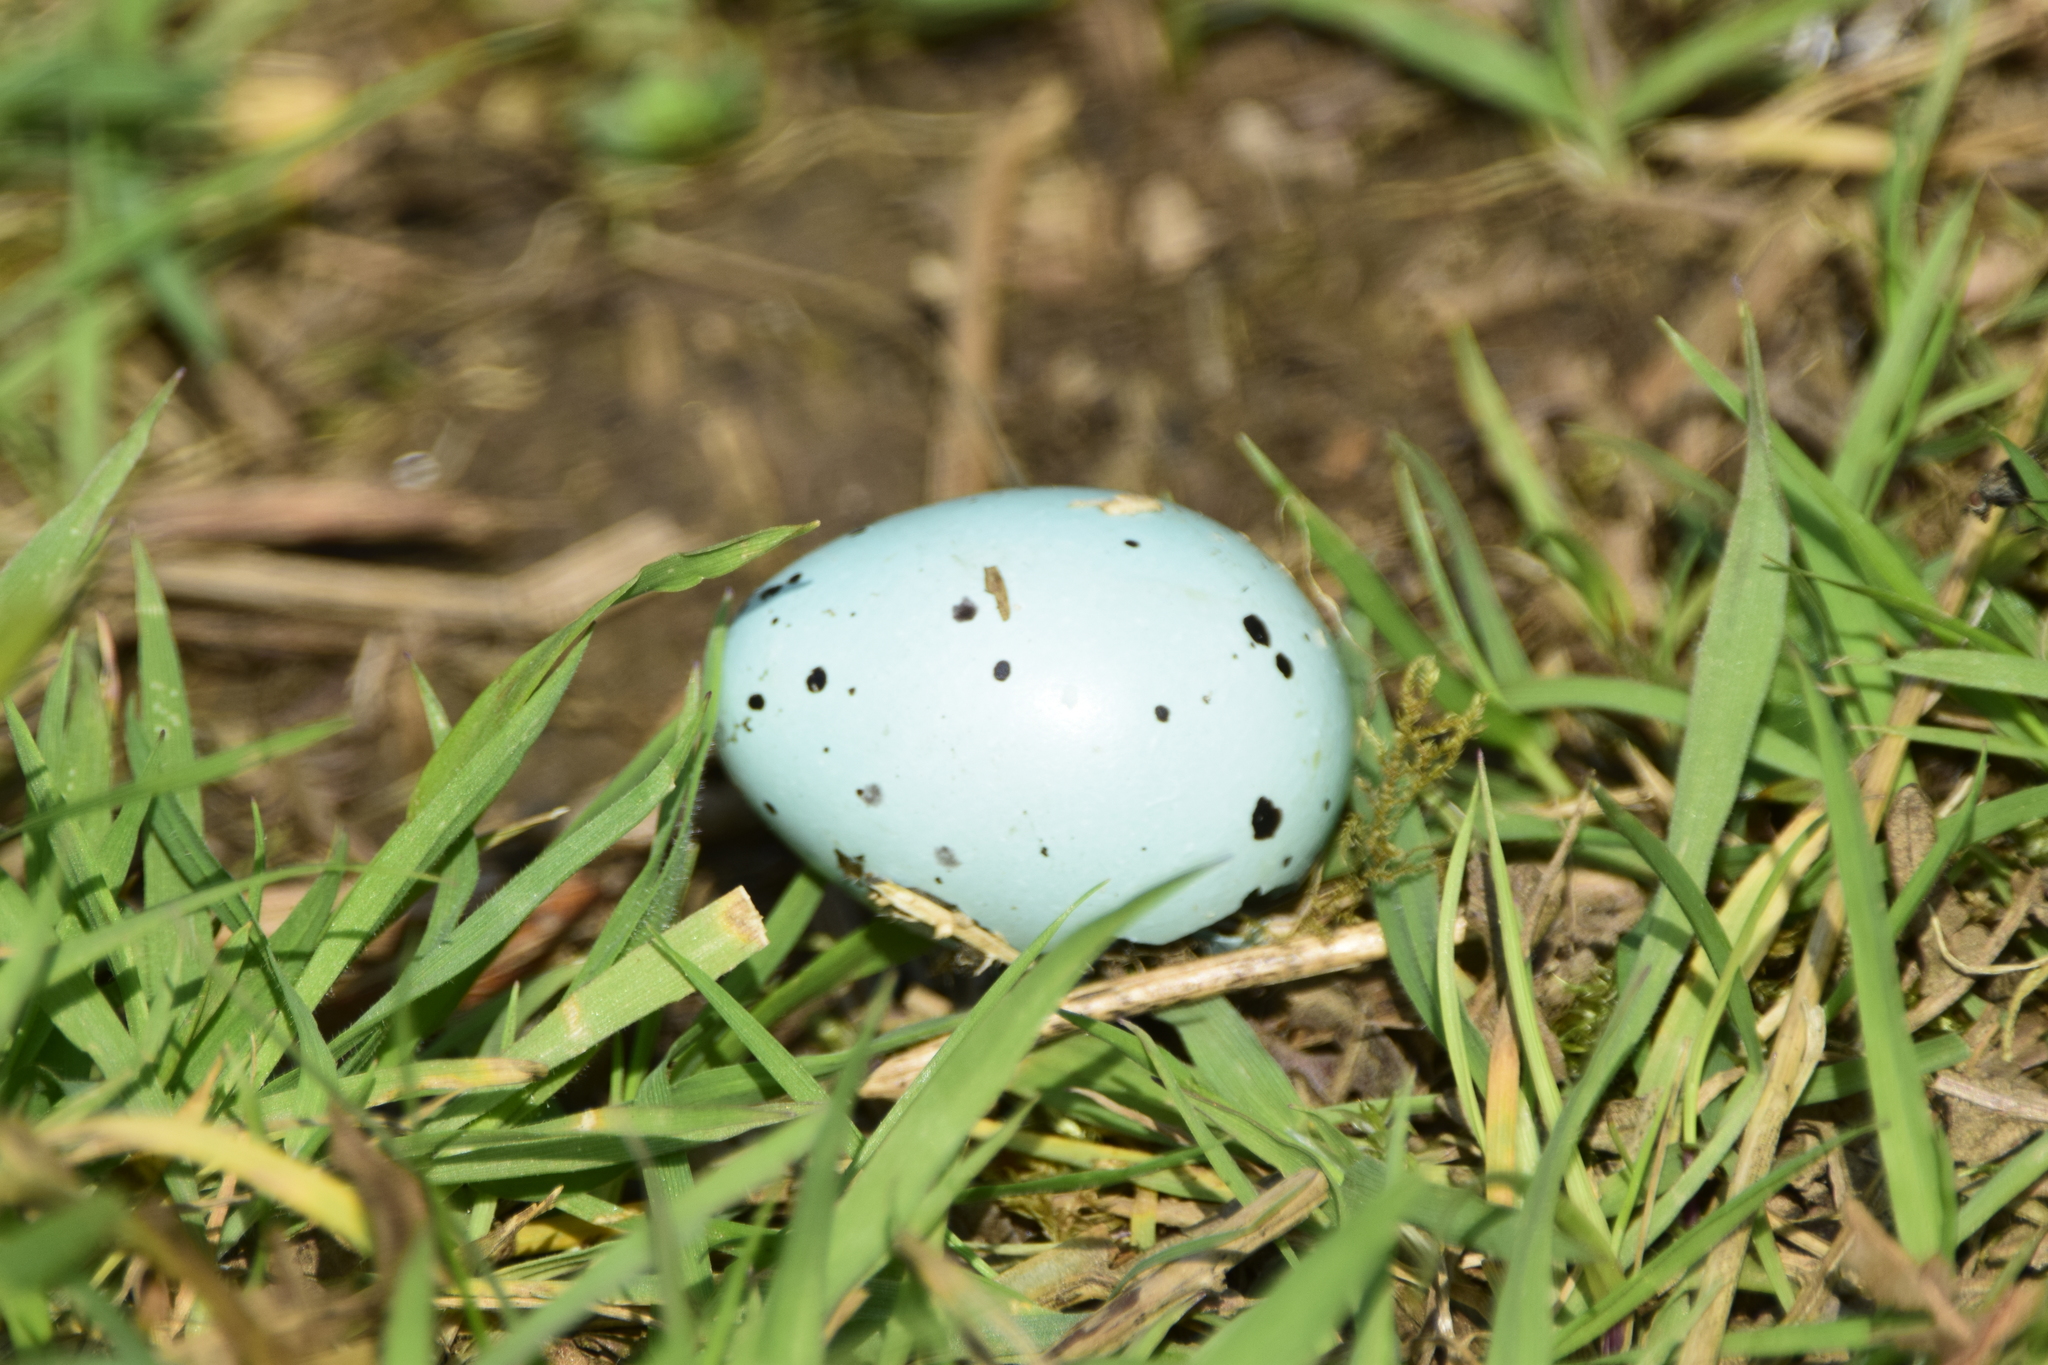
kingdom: Animalia
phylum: Chordata
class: Aves
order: Passeriformes
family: Turdidae
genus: Turdus
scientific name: Turdus philomelos
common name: Song thrush
